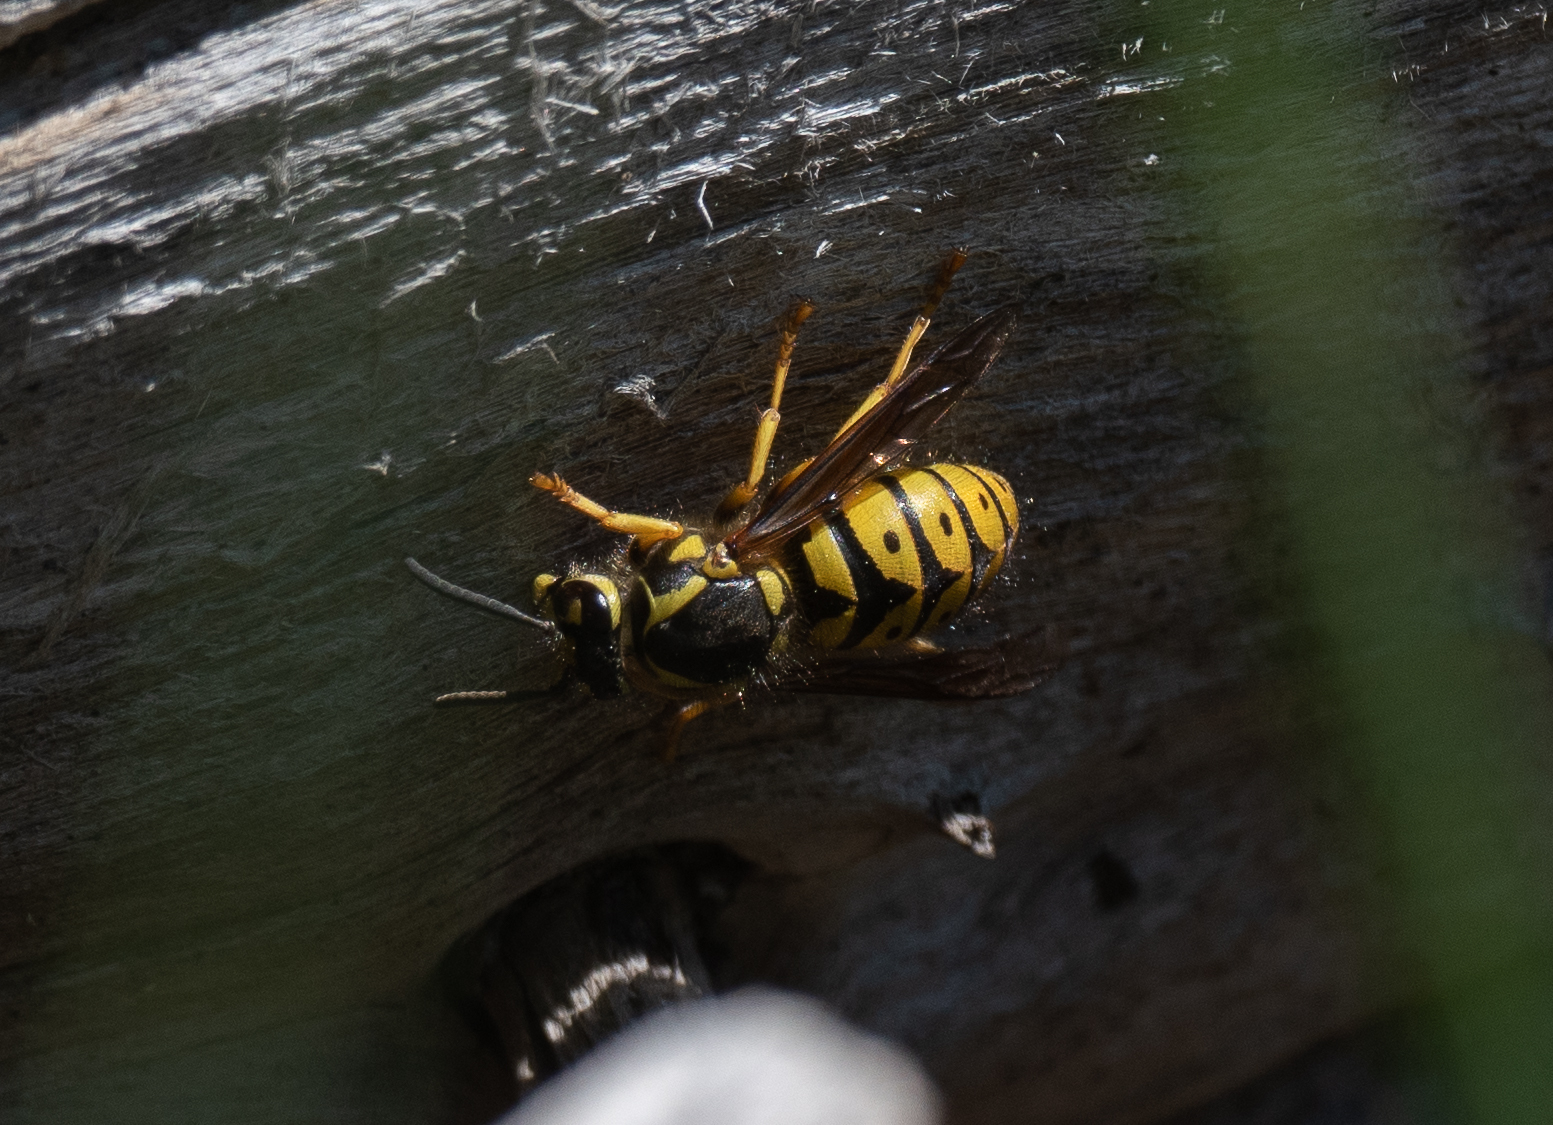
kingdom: Animalia
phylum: Arthropoda
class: Insecta
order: Hymenoptera
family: Vespidae
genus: Dolichovespula
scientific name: Dolichovespula arenaria
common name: Aerial yellowjacket
